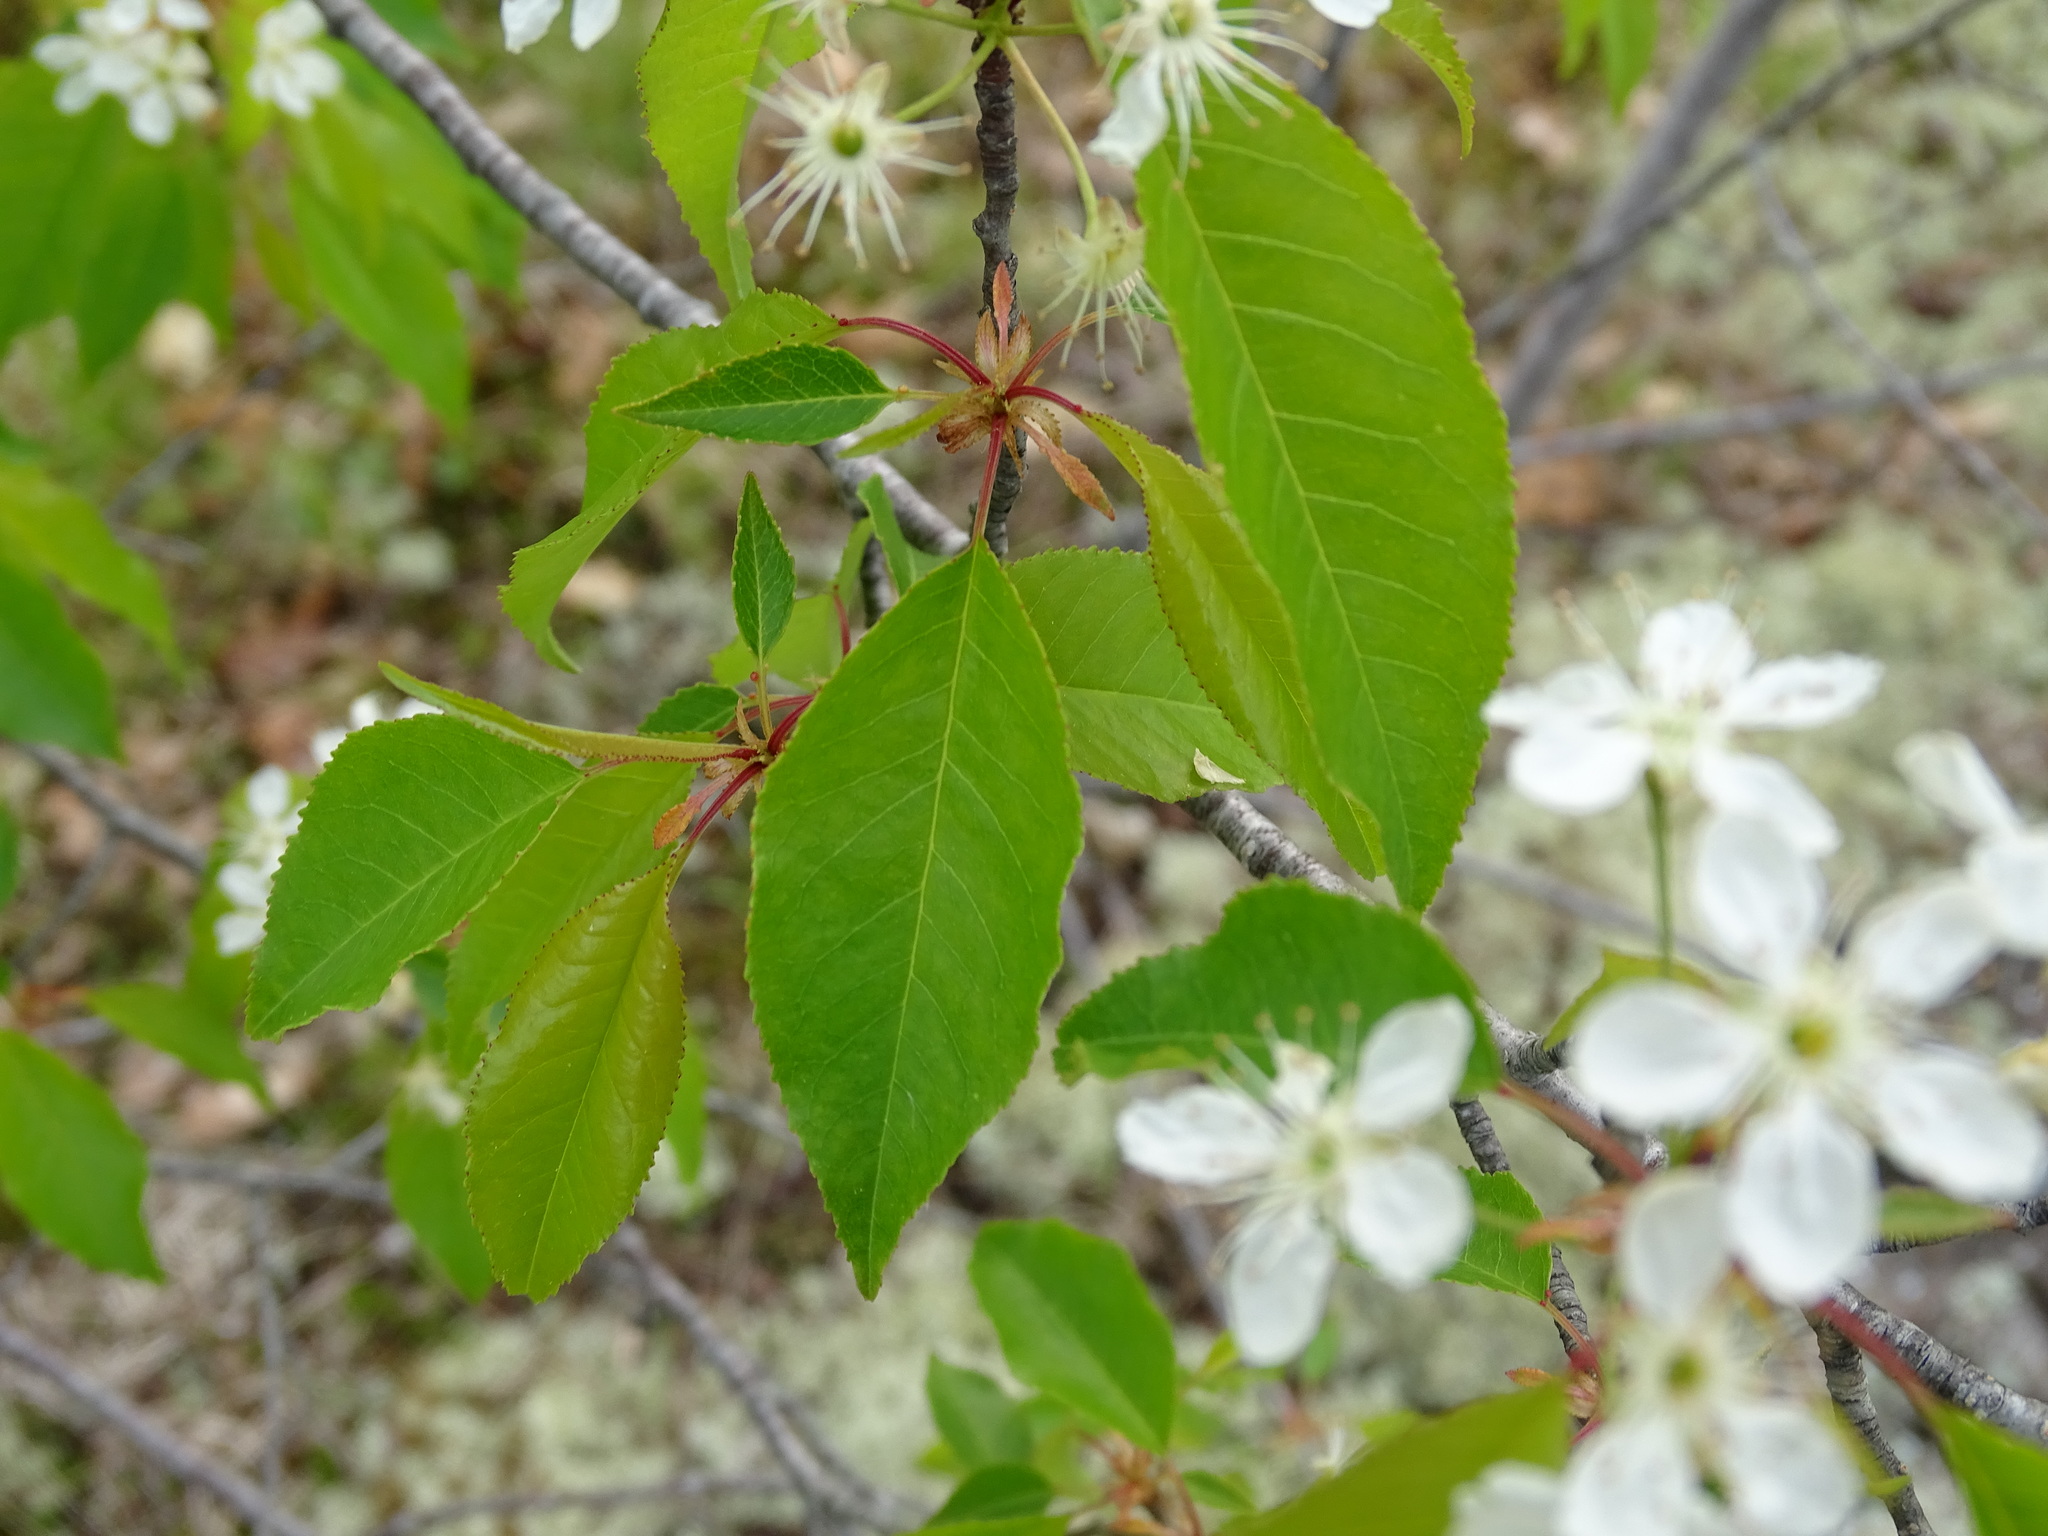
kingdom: Plantae
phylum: Tracheophyta
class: Magnoliopsida
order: Rosales
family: Rosaceae
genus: Prunus
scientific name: Prunus pensylvanica
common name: Pin cherry
